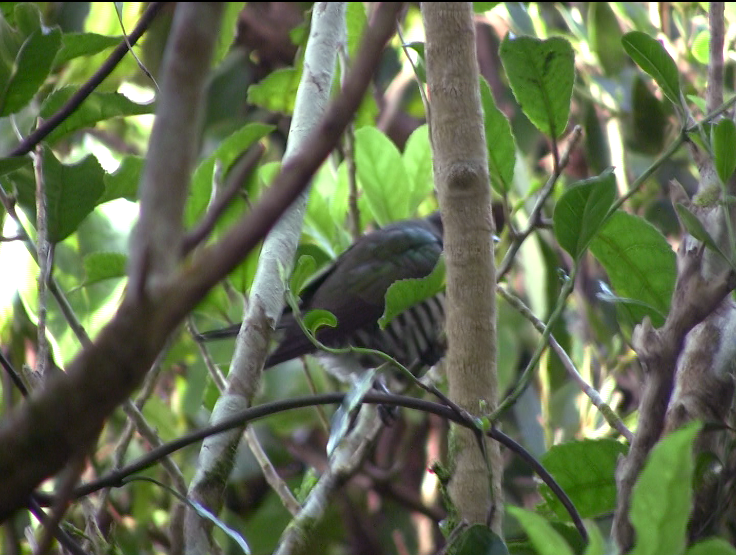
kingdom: Animalia
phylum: Chordata
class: Aves
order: Cuculiformes
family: Cuculidae
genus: Chrysococcyx
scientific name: Chrysococcyx lucidus
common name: Shining bronze cuckoo
